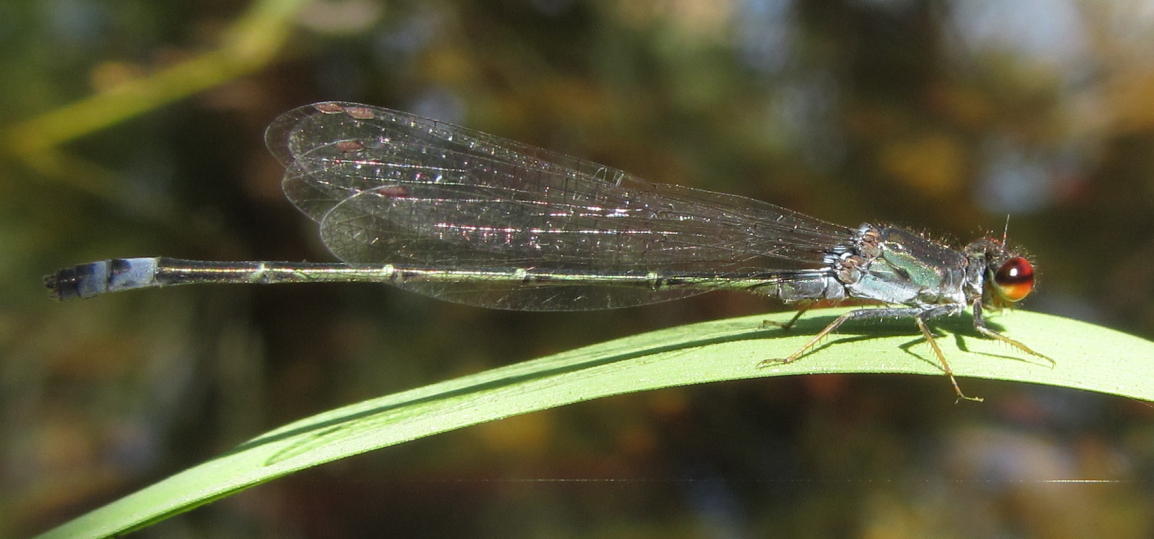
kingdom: Animalia
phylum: Arthropoda
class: Insecta
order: Odonata
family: Coenagrionidae
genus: Pseudagrion
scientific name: Pseudagrion hamoni
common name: Swarthy sprite
